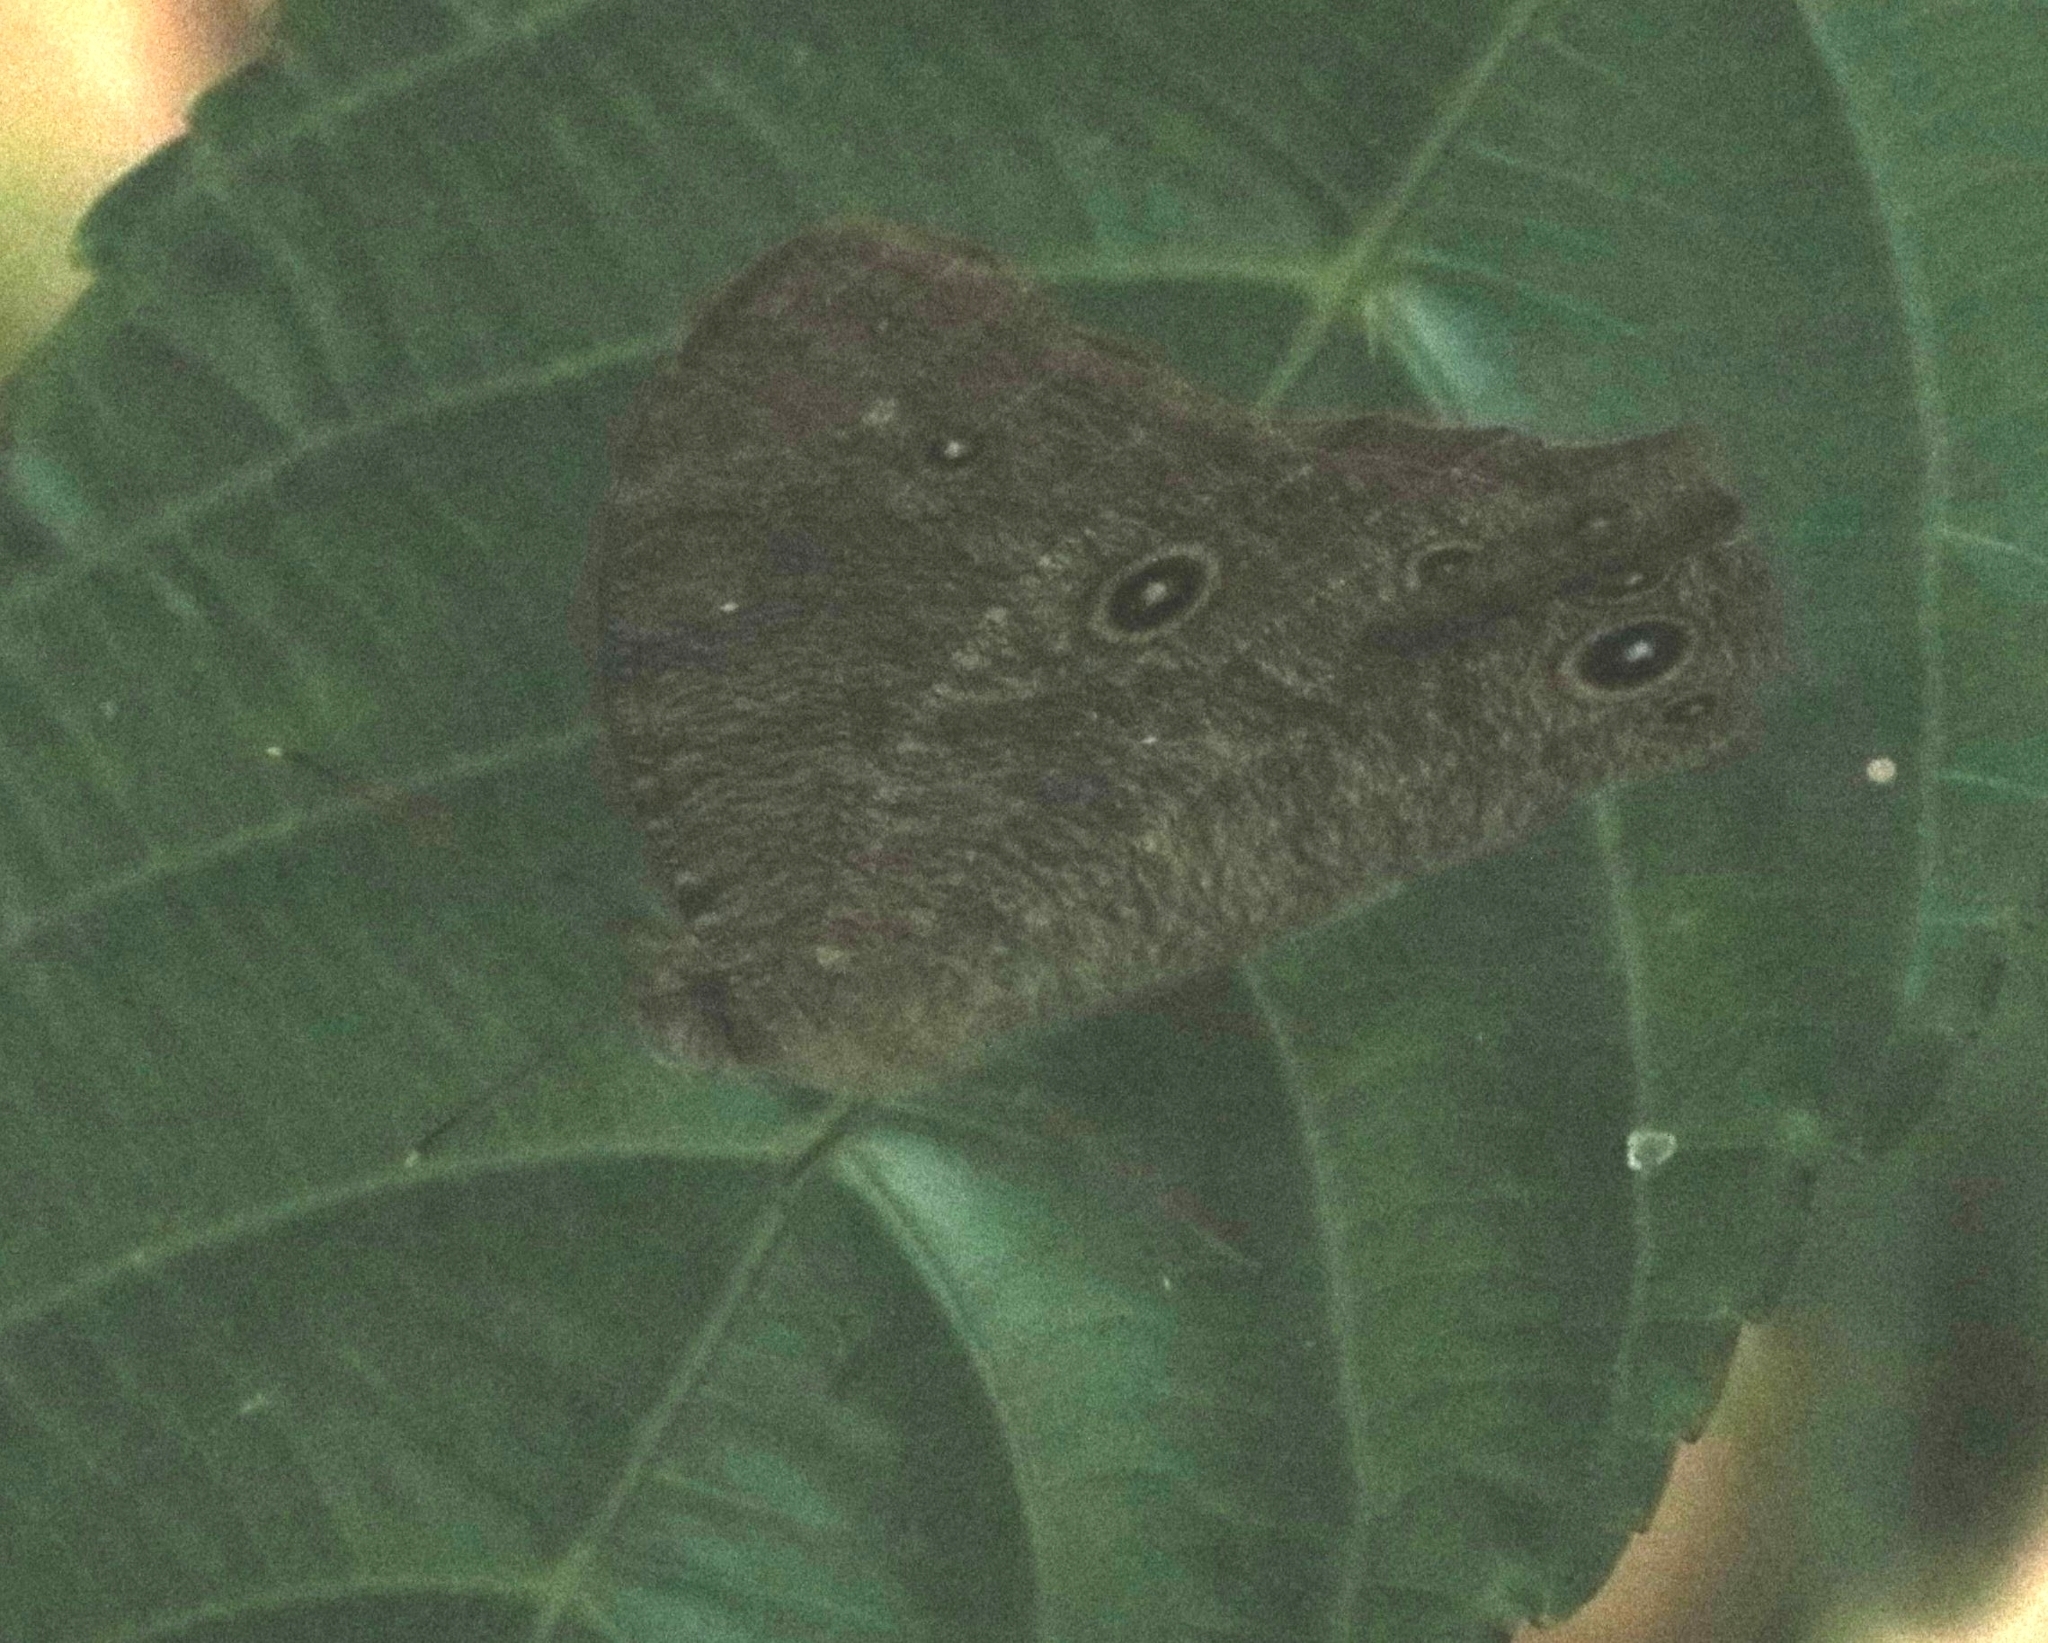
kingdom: Animalia
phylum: Arthropoda
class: Insecta
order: Lepidoptera
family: Nymphalidae
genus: Melanitis
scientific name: Melanitis leda
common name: Twilight brown
